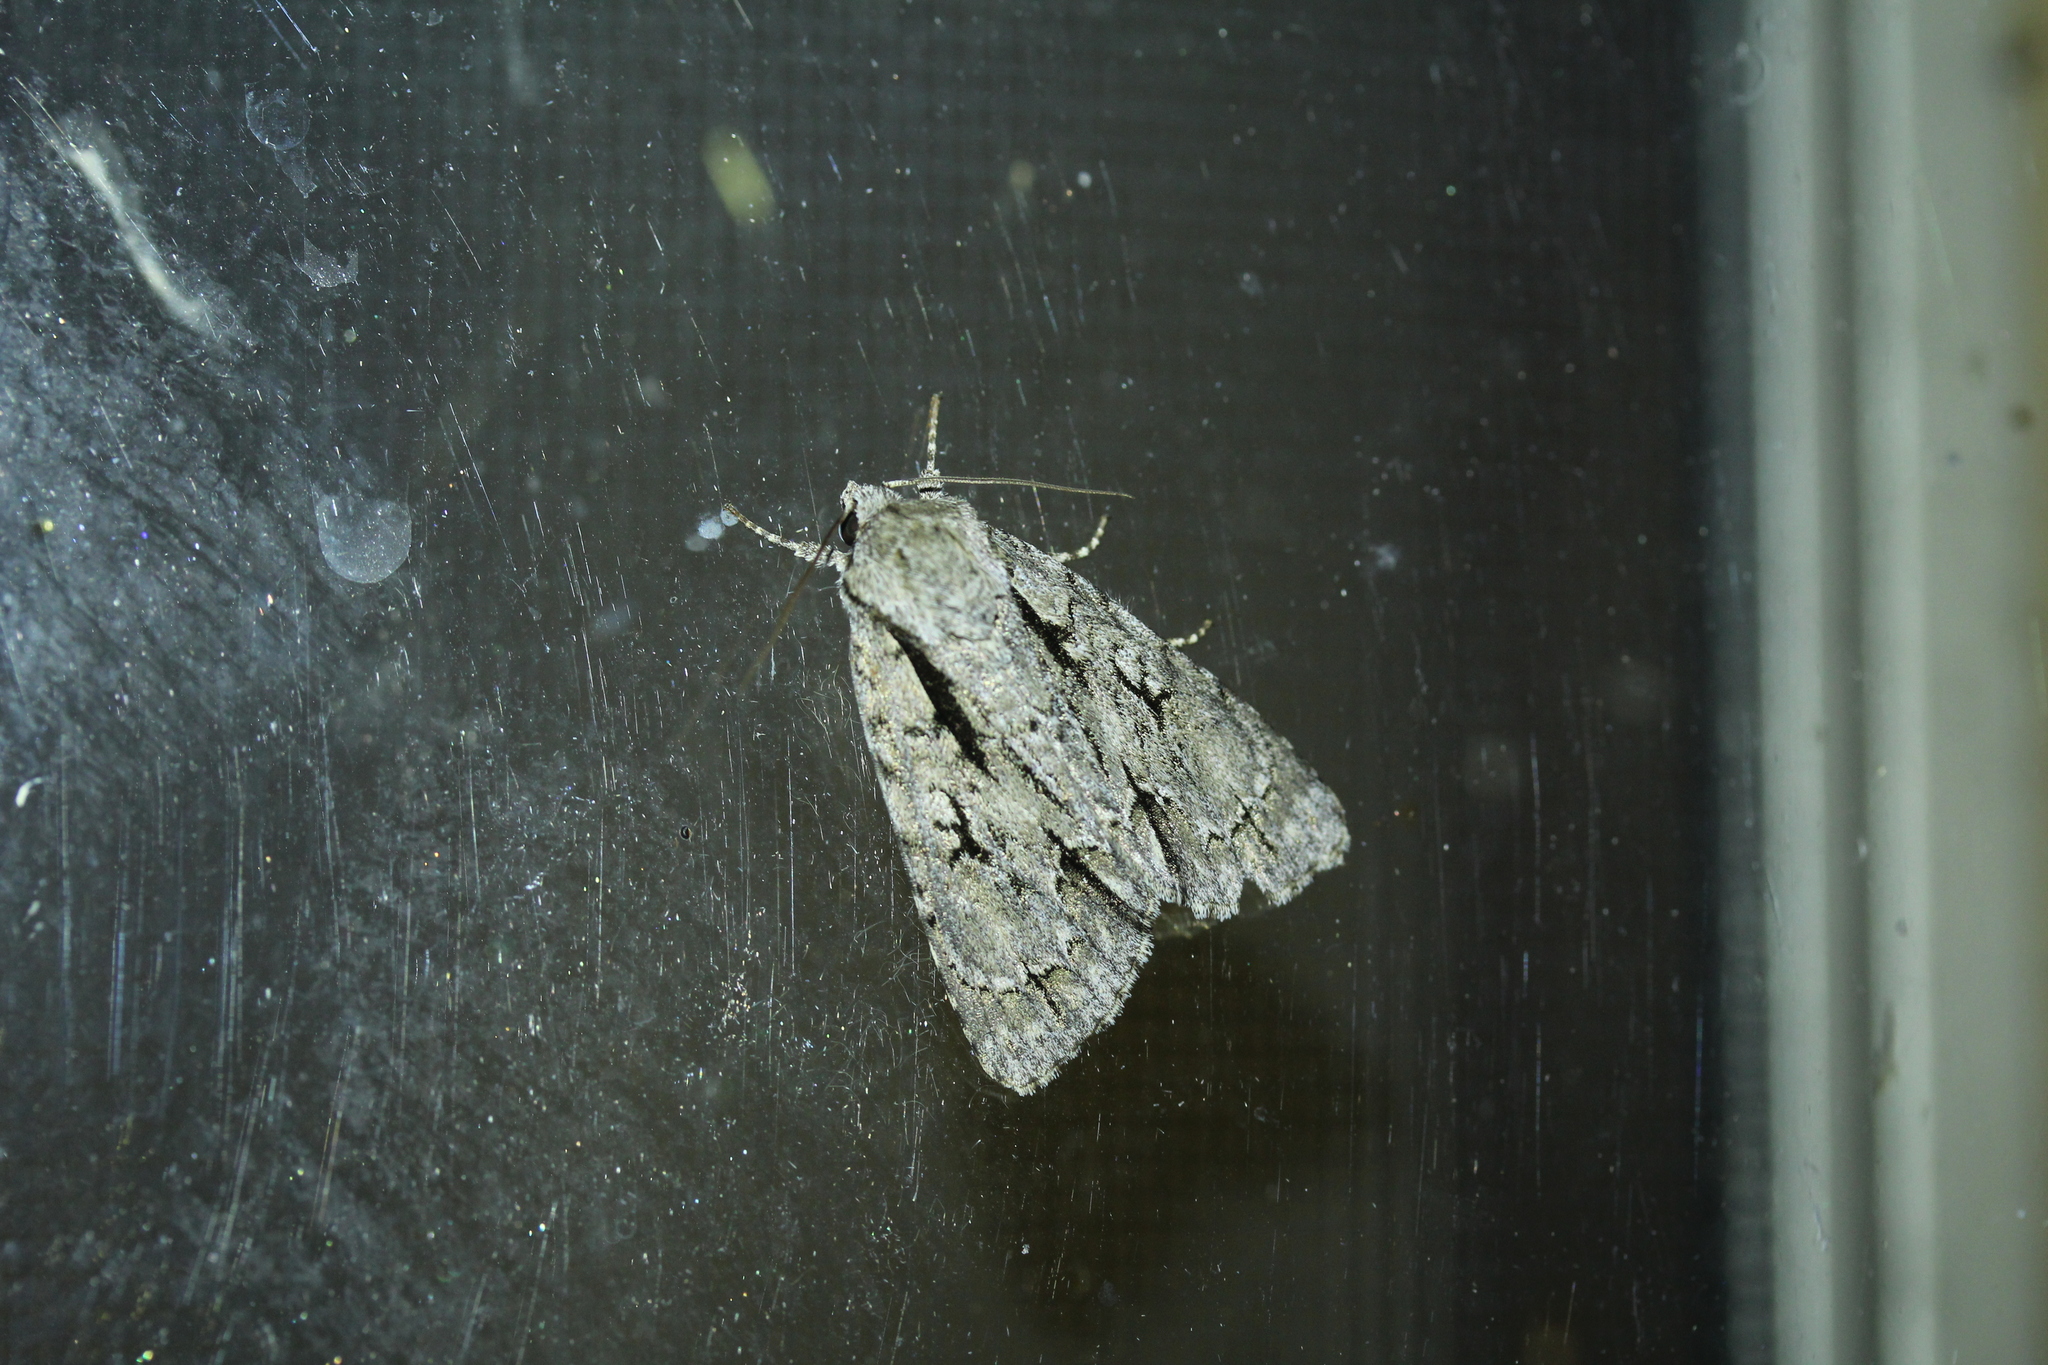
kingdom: Animalia
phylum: Arthropoda
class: Insecta
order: Lepidoptera
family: Noctuidae
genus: Acronicta
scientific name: Acronicta lobeliae
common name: Greater oak dagger
